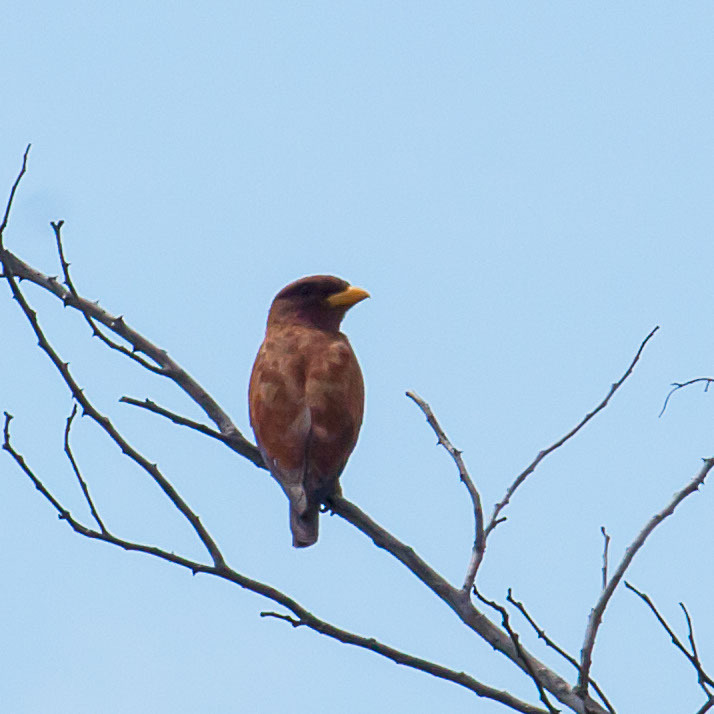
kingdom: Animalia
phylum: Chordata
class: Aves
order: Coraciiformes
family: Coraciidae
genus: Eurystomus
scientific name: Eurystomus glaucurus
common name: Broad-billed roller
